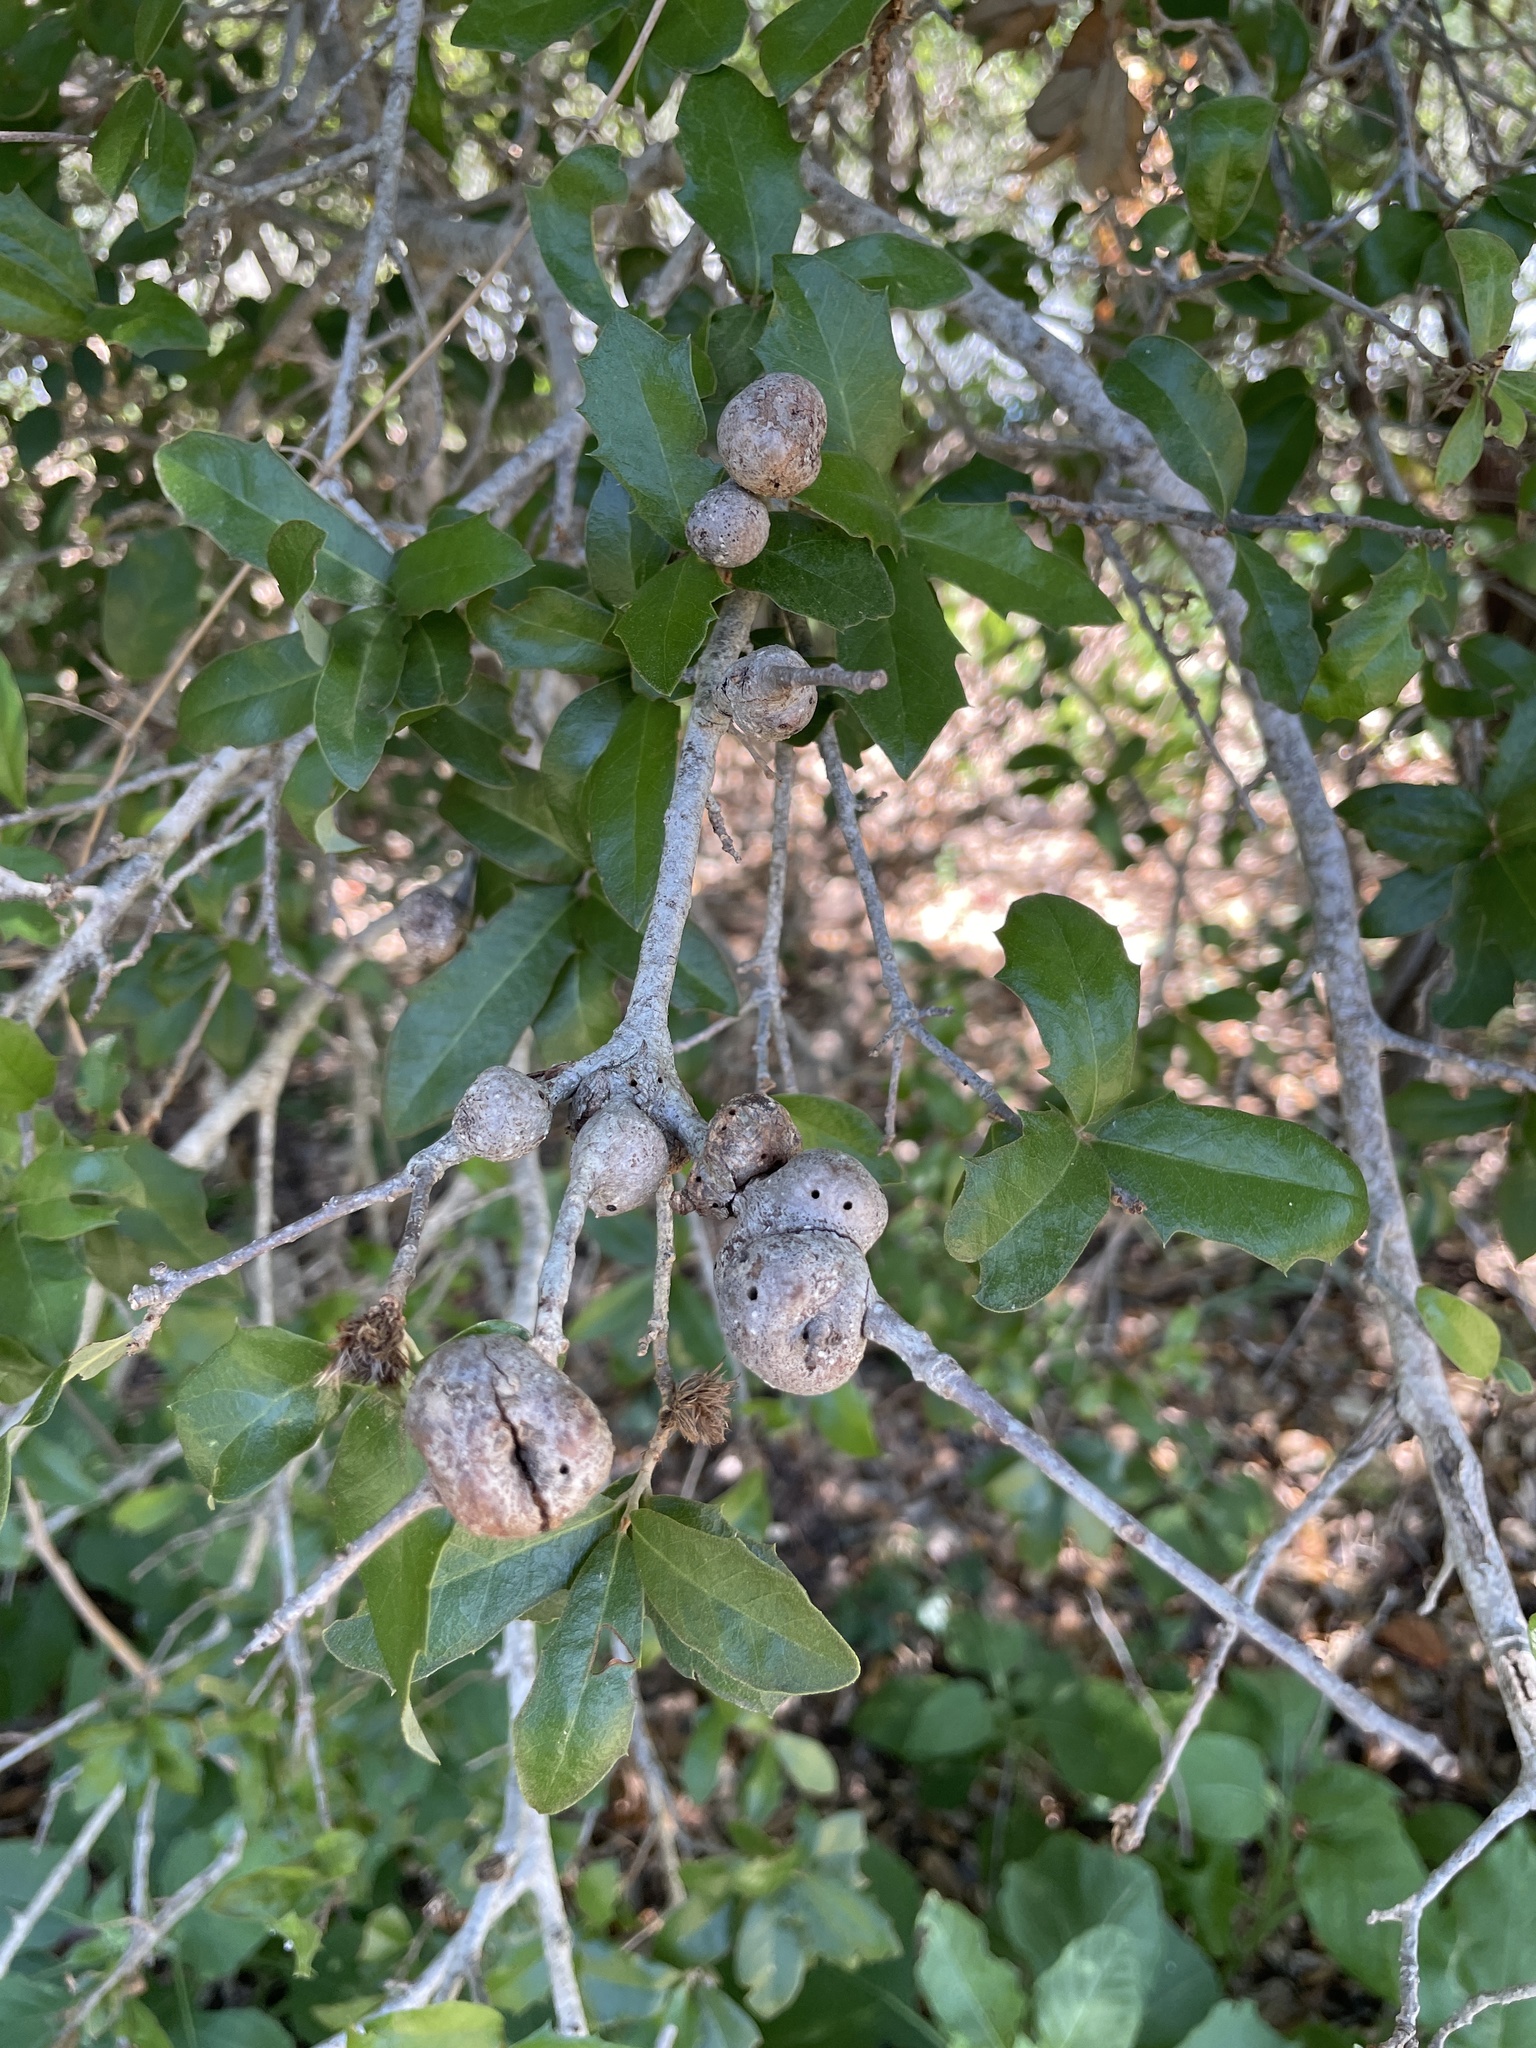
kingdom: Animalia
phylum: Arthropoda
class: Insecta
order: Hymenoptera
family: Cynipidae
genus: Callirhytis
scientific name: Callirhytis
